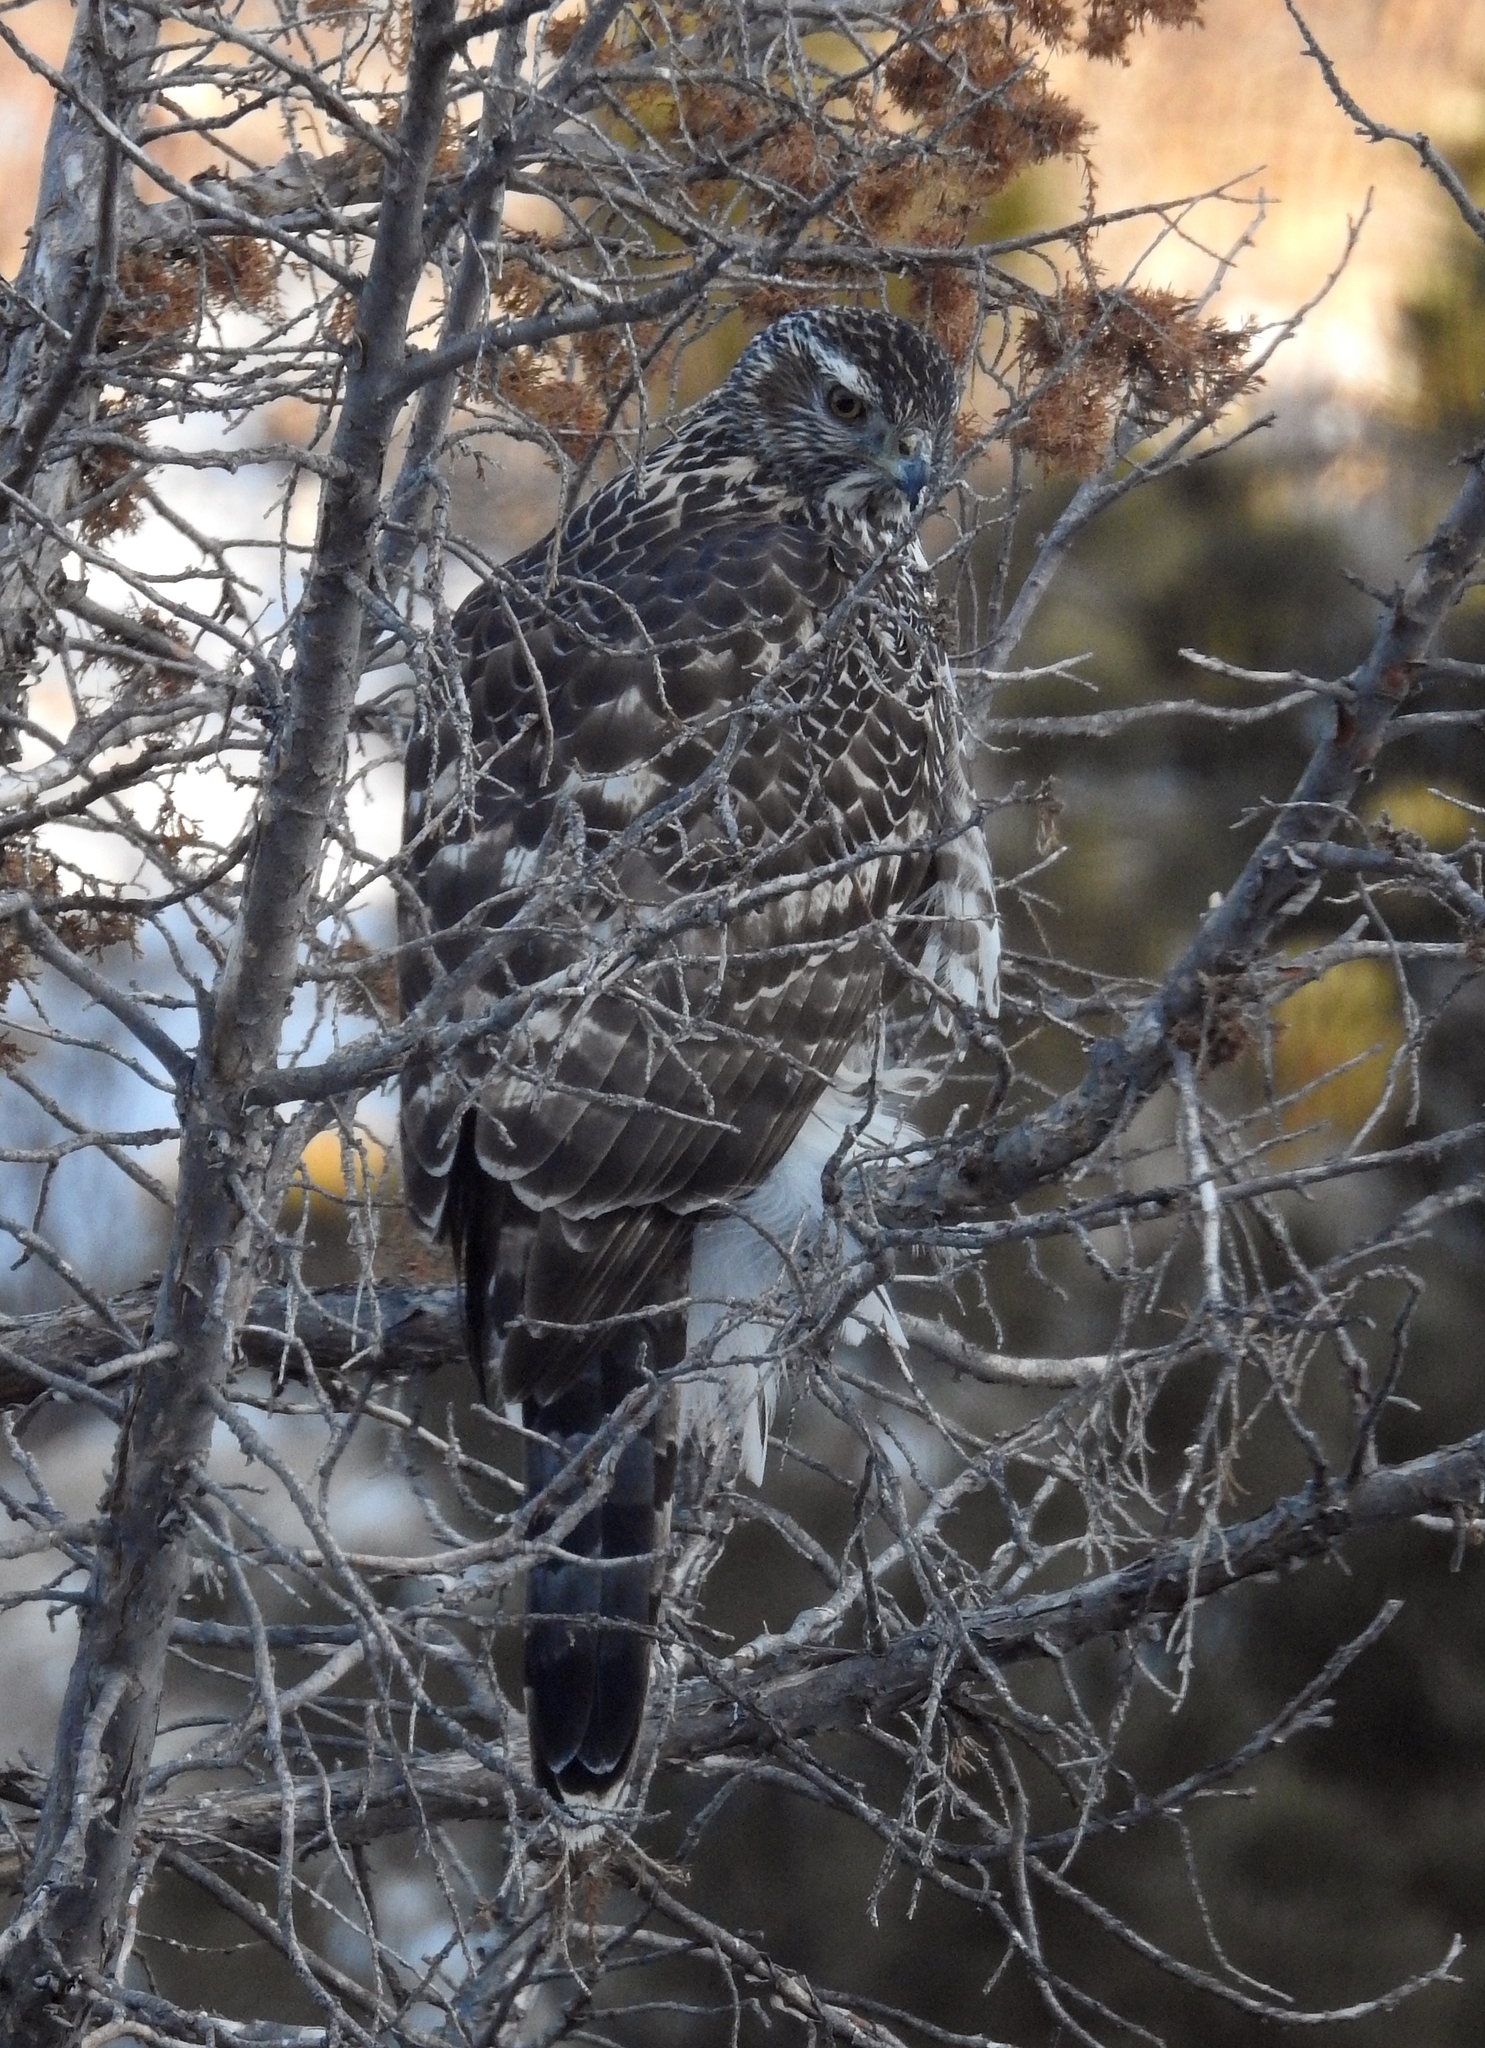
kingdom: Animalia
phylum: Chordata
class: Aves
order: Accipitriformes
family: Accipitridae
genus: Accipiter
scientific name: Accipiter gentilis
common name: Northern goshawk
